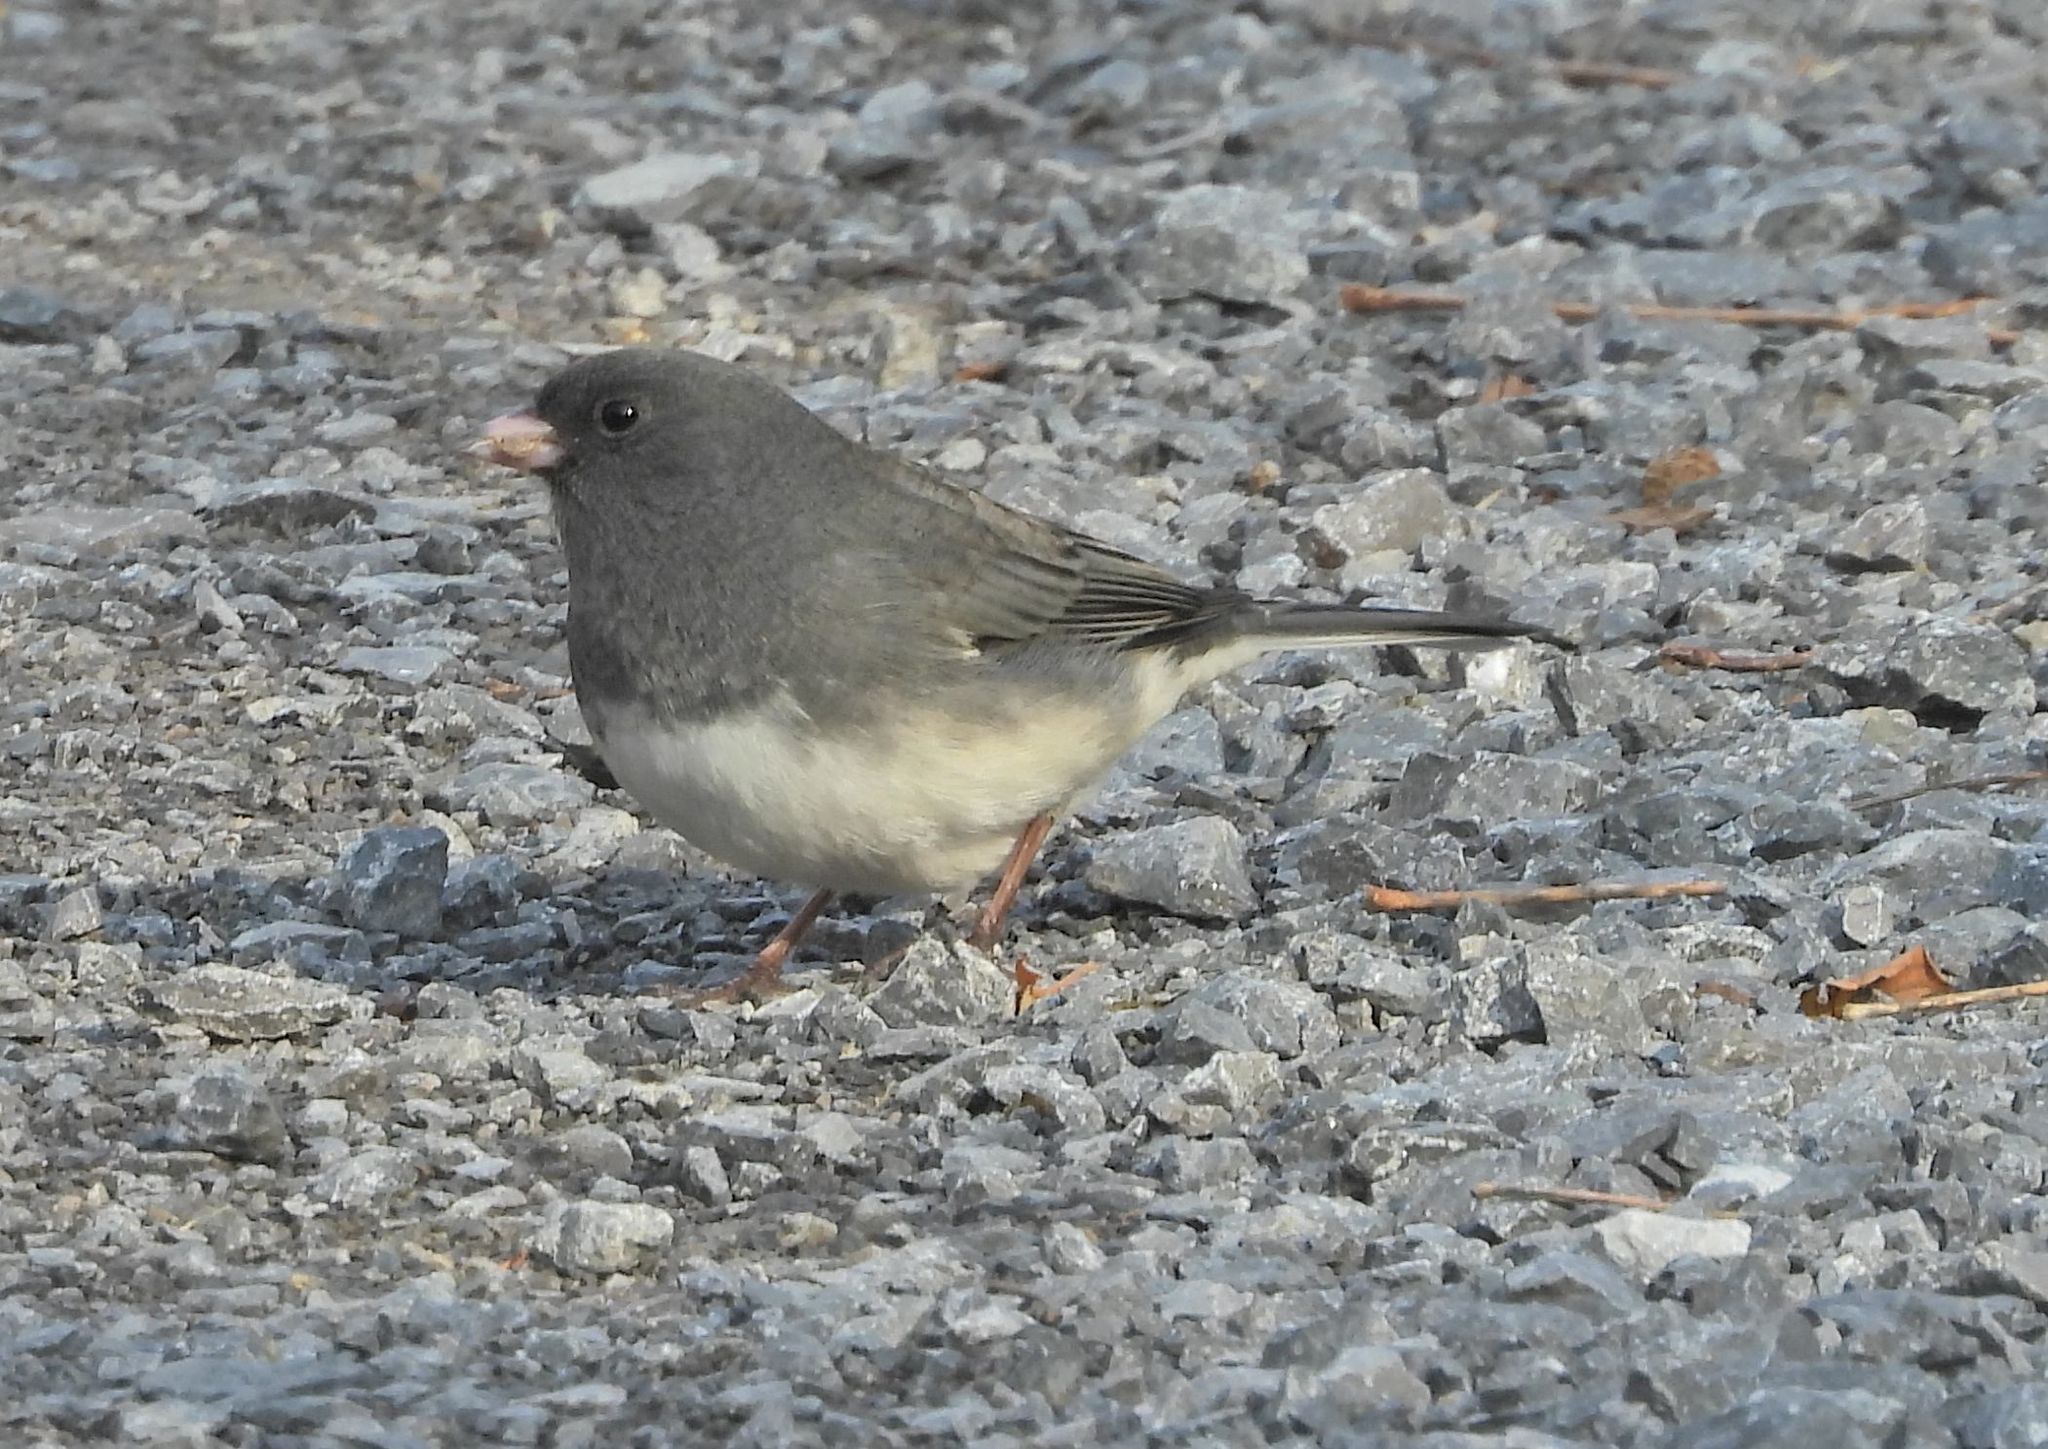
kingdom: Animalia
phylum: Chordata
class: Aves
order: Passeriformes
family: Passerellidae
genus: Junco
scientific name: Junco hyemalis
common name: Dark-eyed junco
